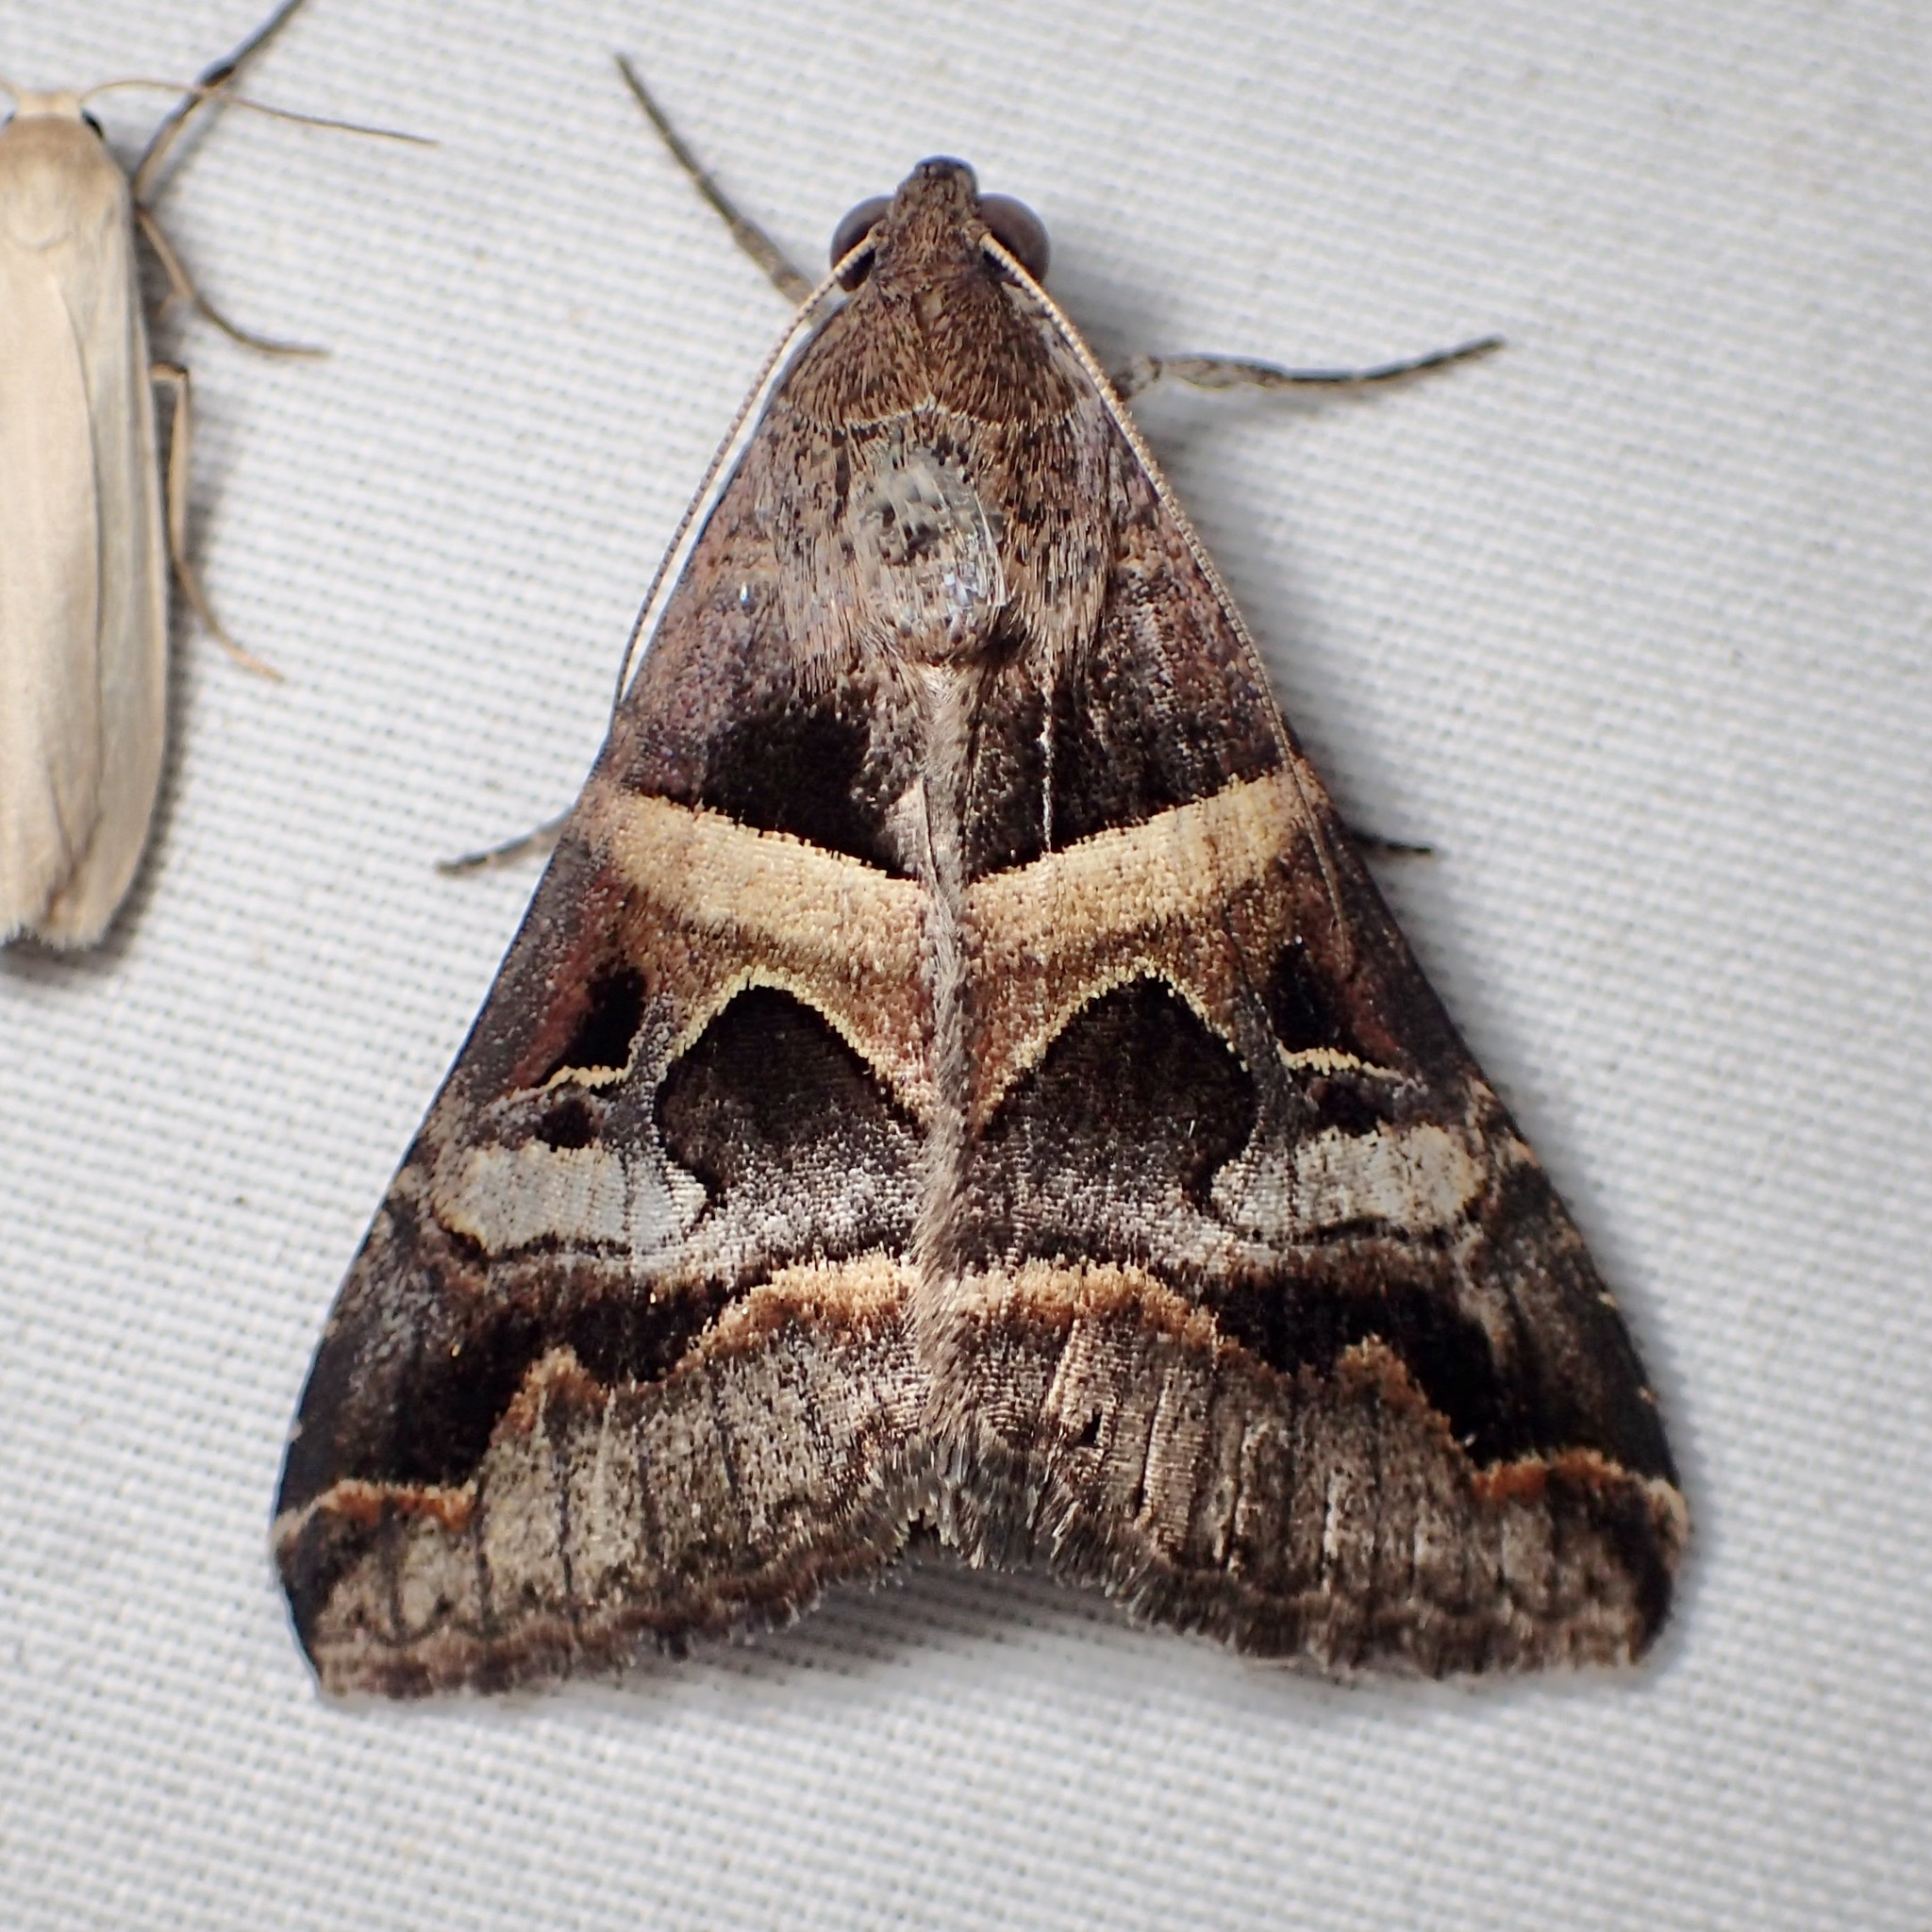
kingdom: Animalia
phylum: Arthropoda
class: Insecta
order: Lepidoptera
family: Erebidae
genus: Melipotis
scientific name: Melipotis perpendicularis
